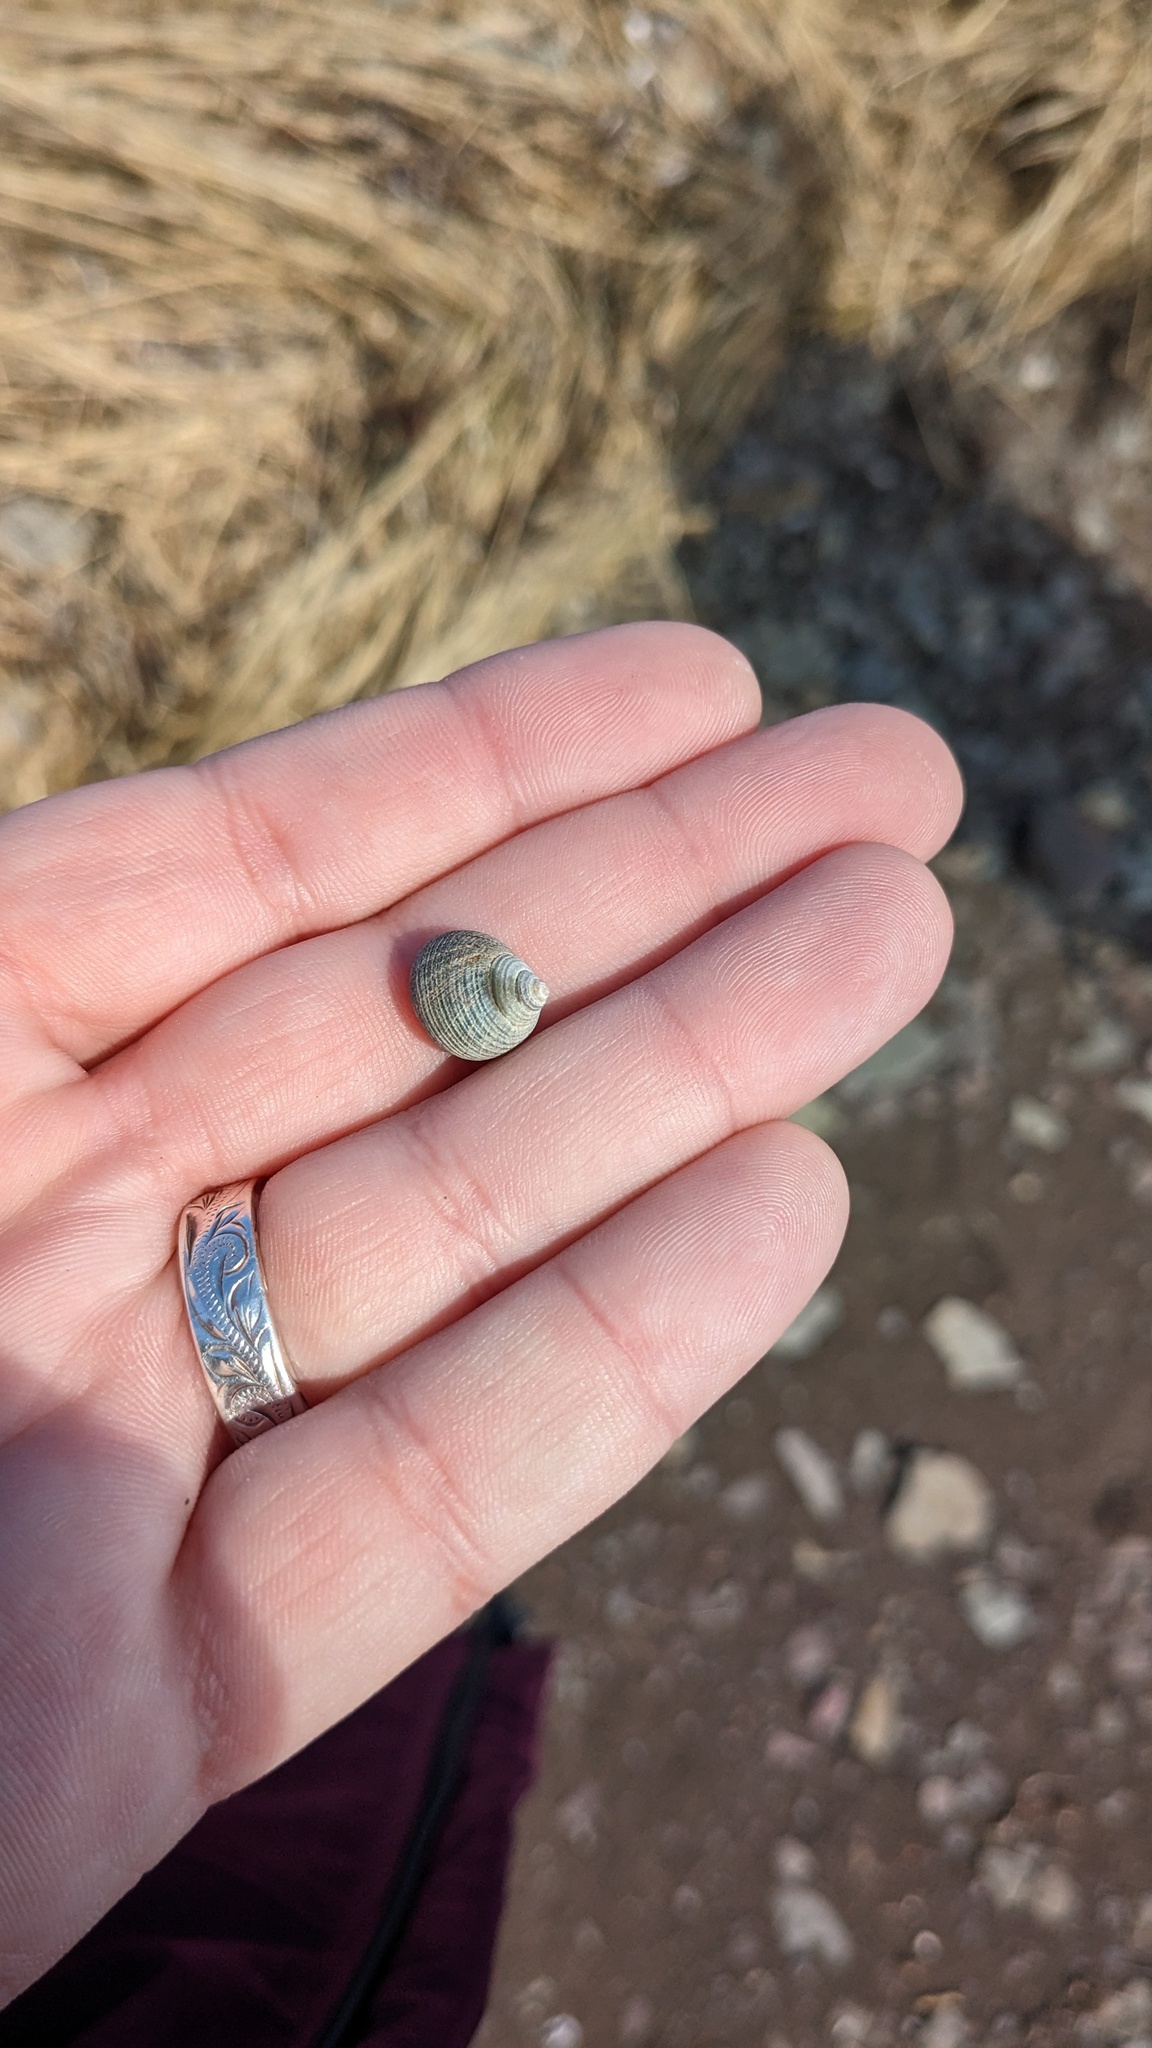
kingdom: Animalia
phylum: Mollusca
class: Gastropoda
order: Littorinimorpha
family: Littorinidae
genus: Littorina
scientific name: Littorina littorea
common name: Common periwinkle
